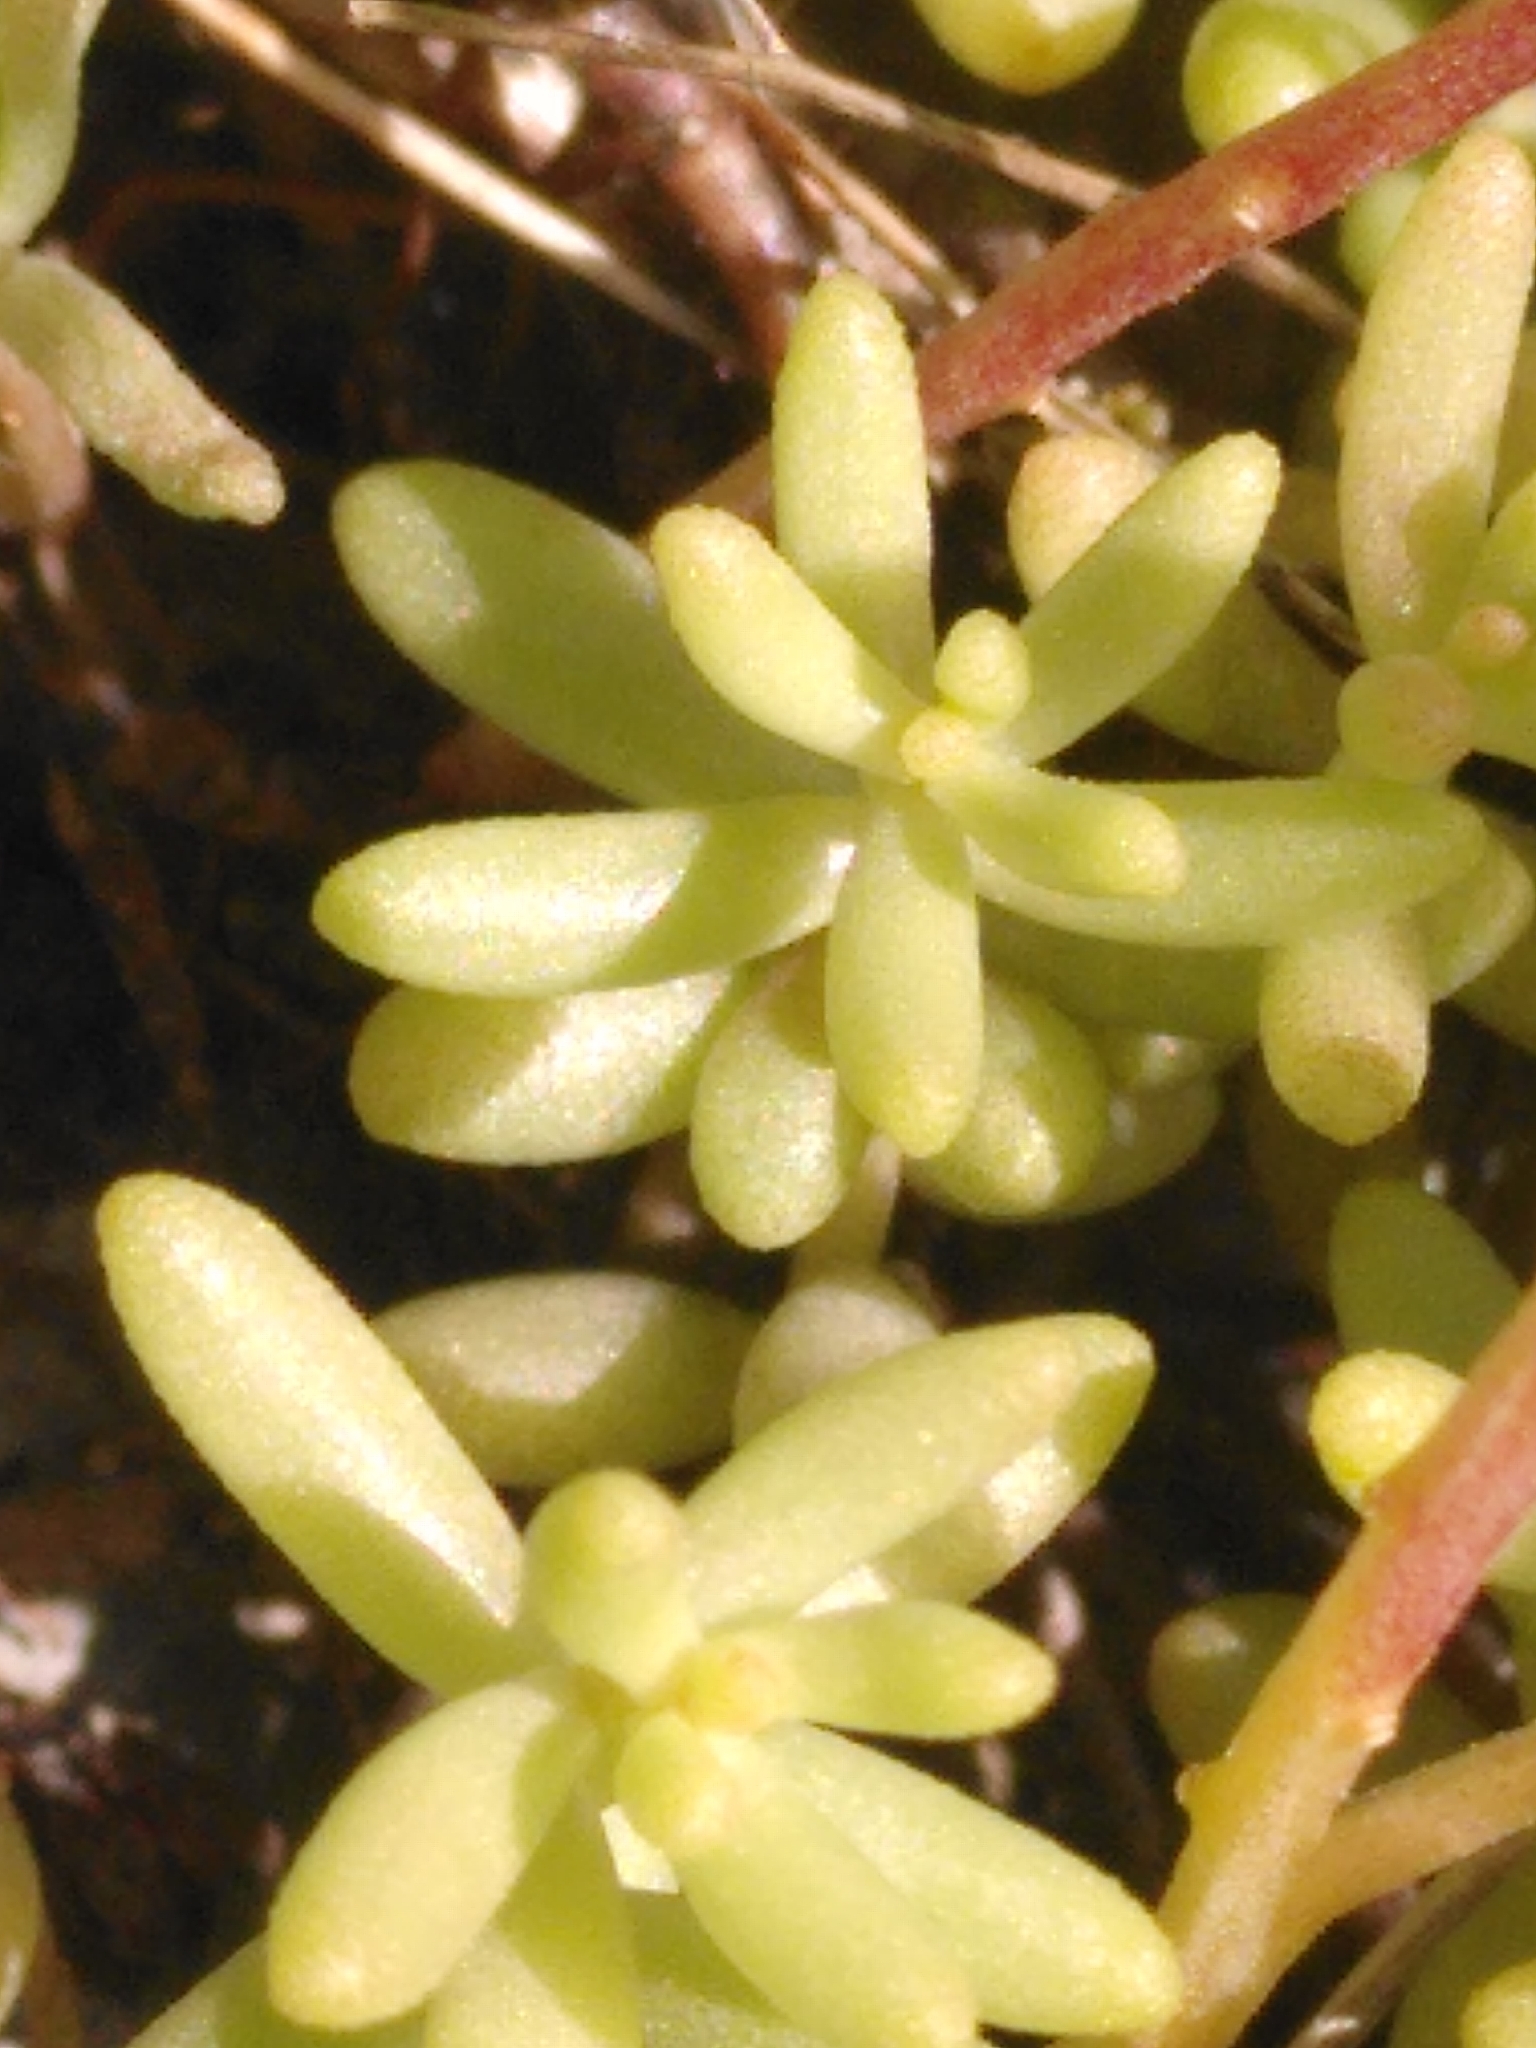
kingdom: Plantae
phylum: Tracheophyta
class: Magnoliopsida
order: Saxifragales
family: Crassulaceae
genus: Sedum
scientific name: Sedum album
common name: White stonecrop
